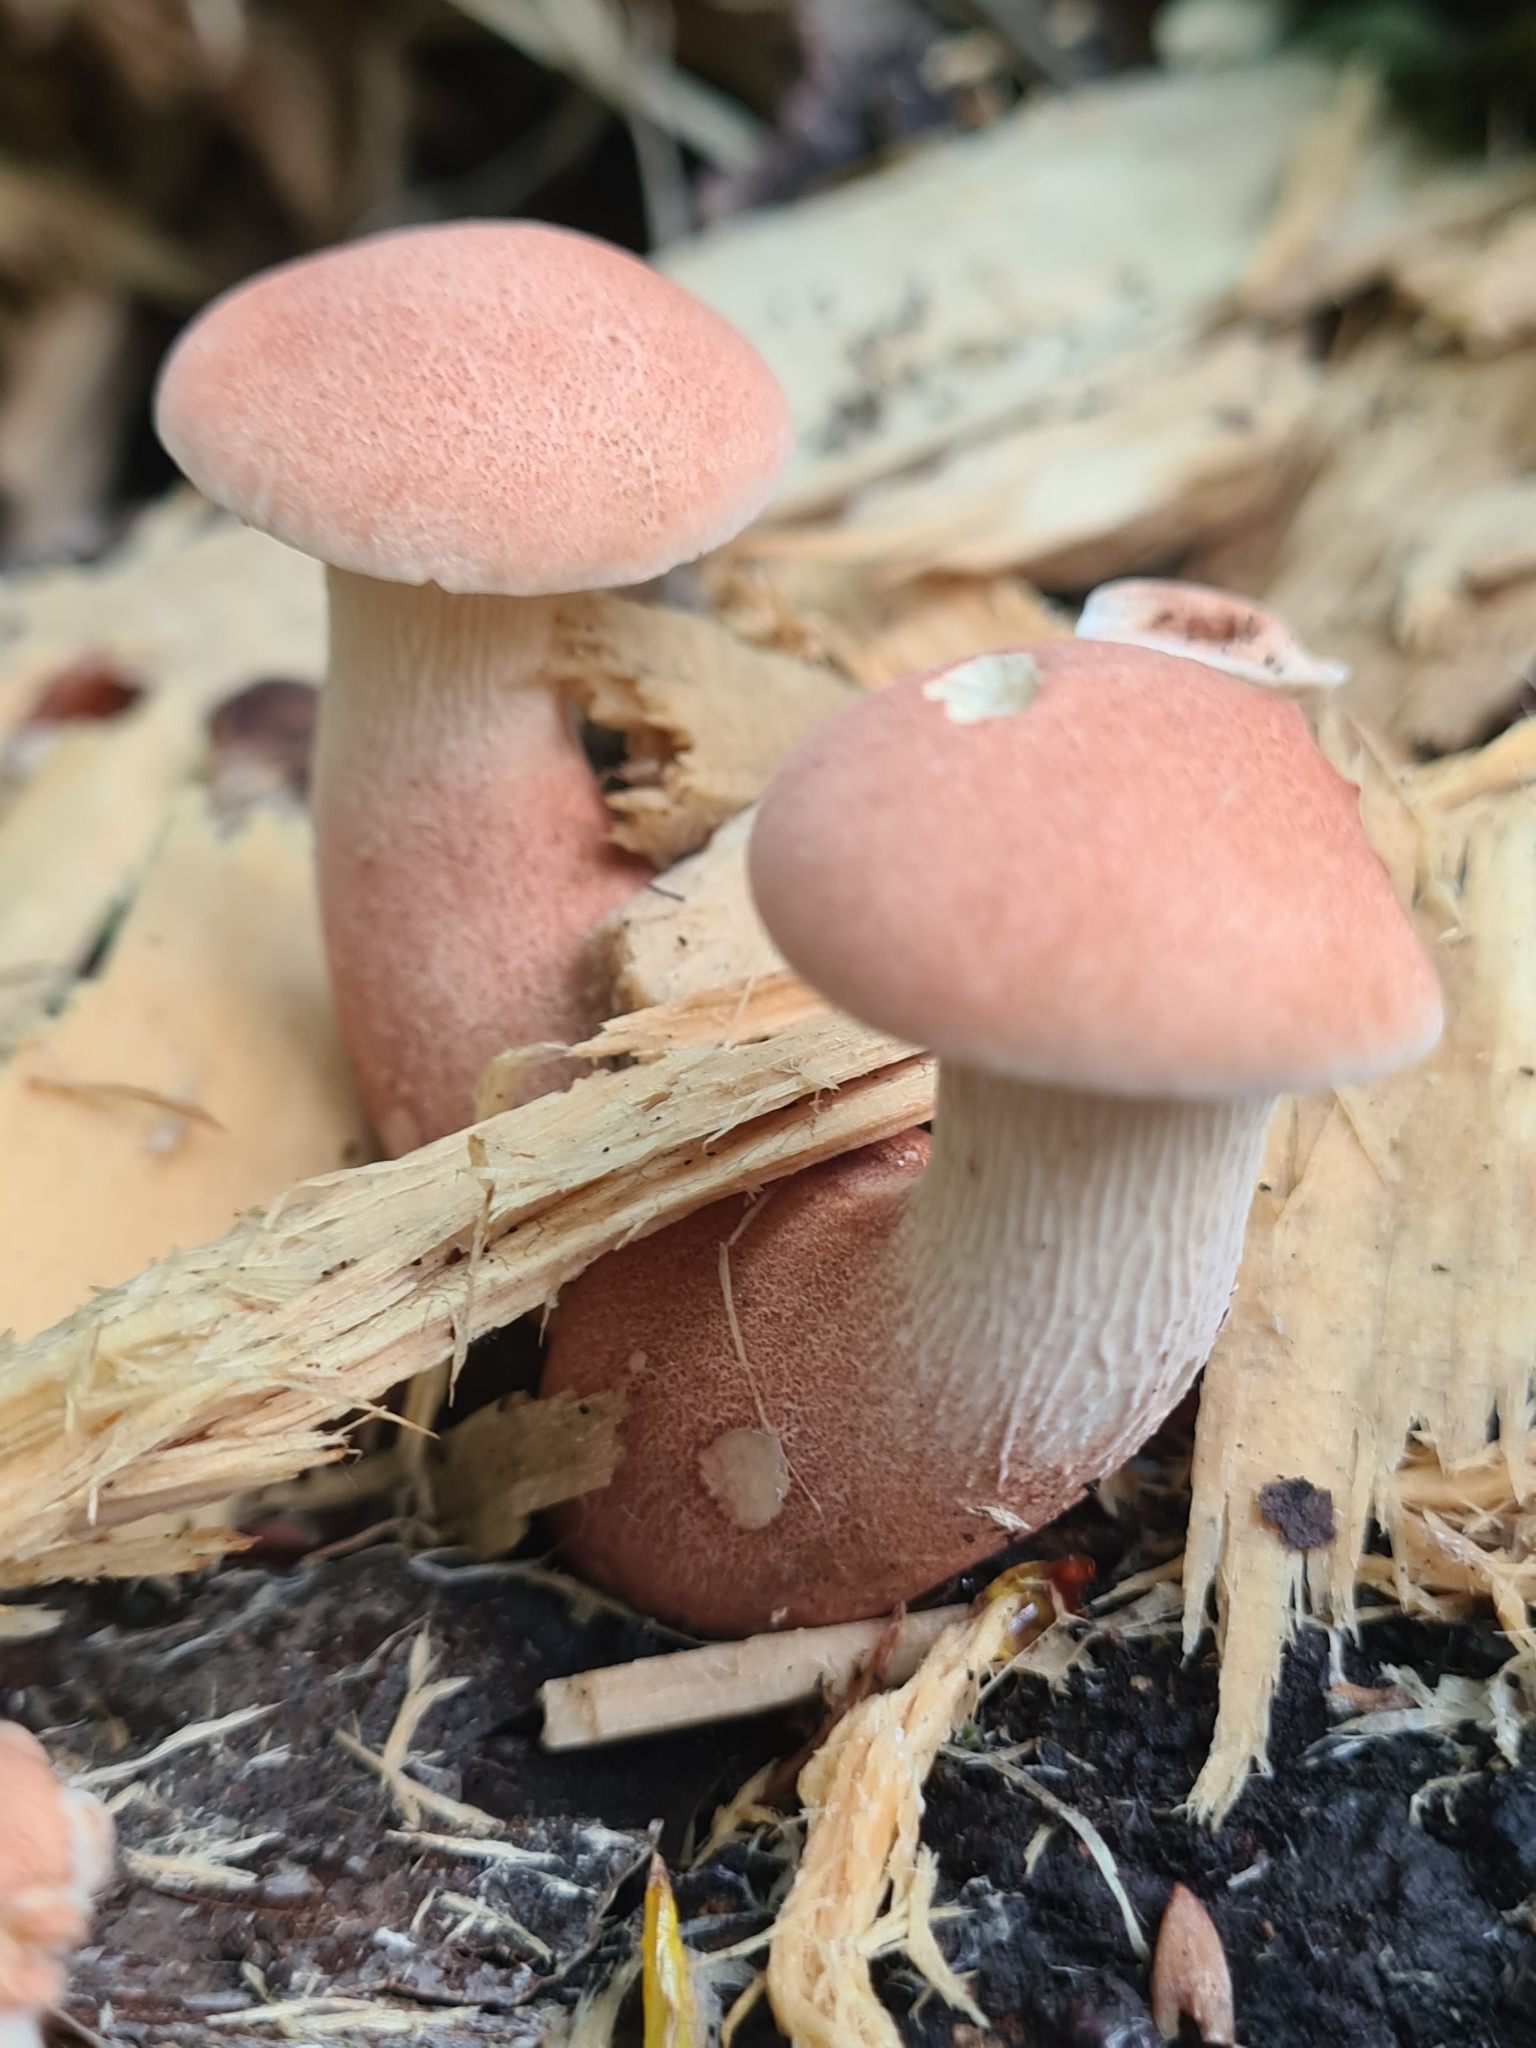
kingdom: Fungi
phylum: Basidiomycota
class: Agaricomycetes
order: Gloeophyllales
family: Gloeophyllaceae
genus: Neolentinus
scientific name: Neolentinus cyathiformis
